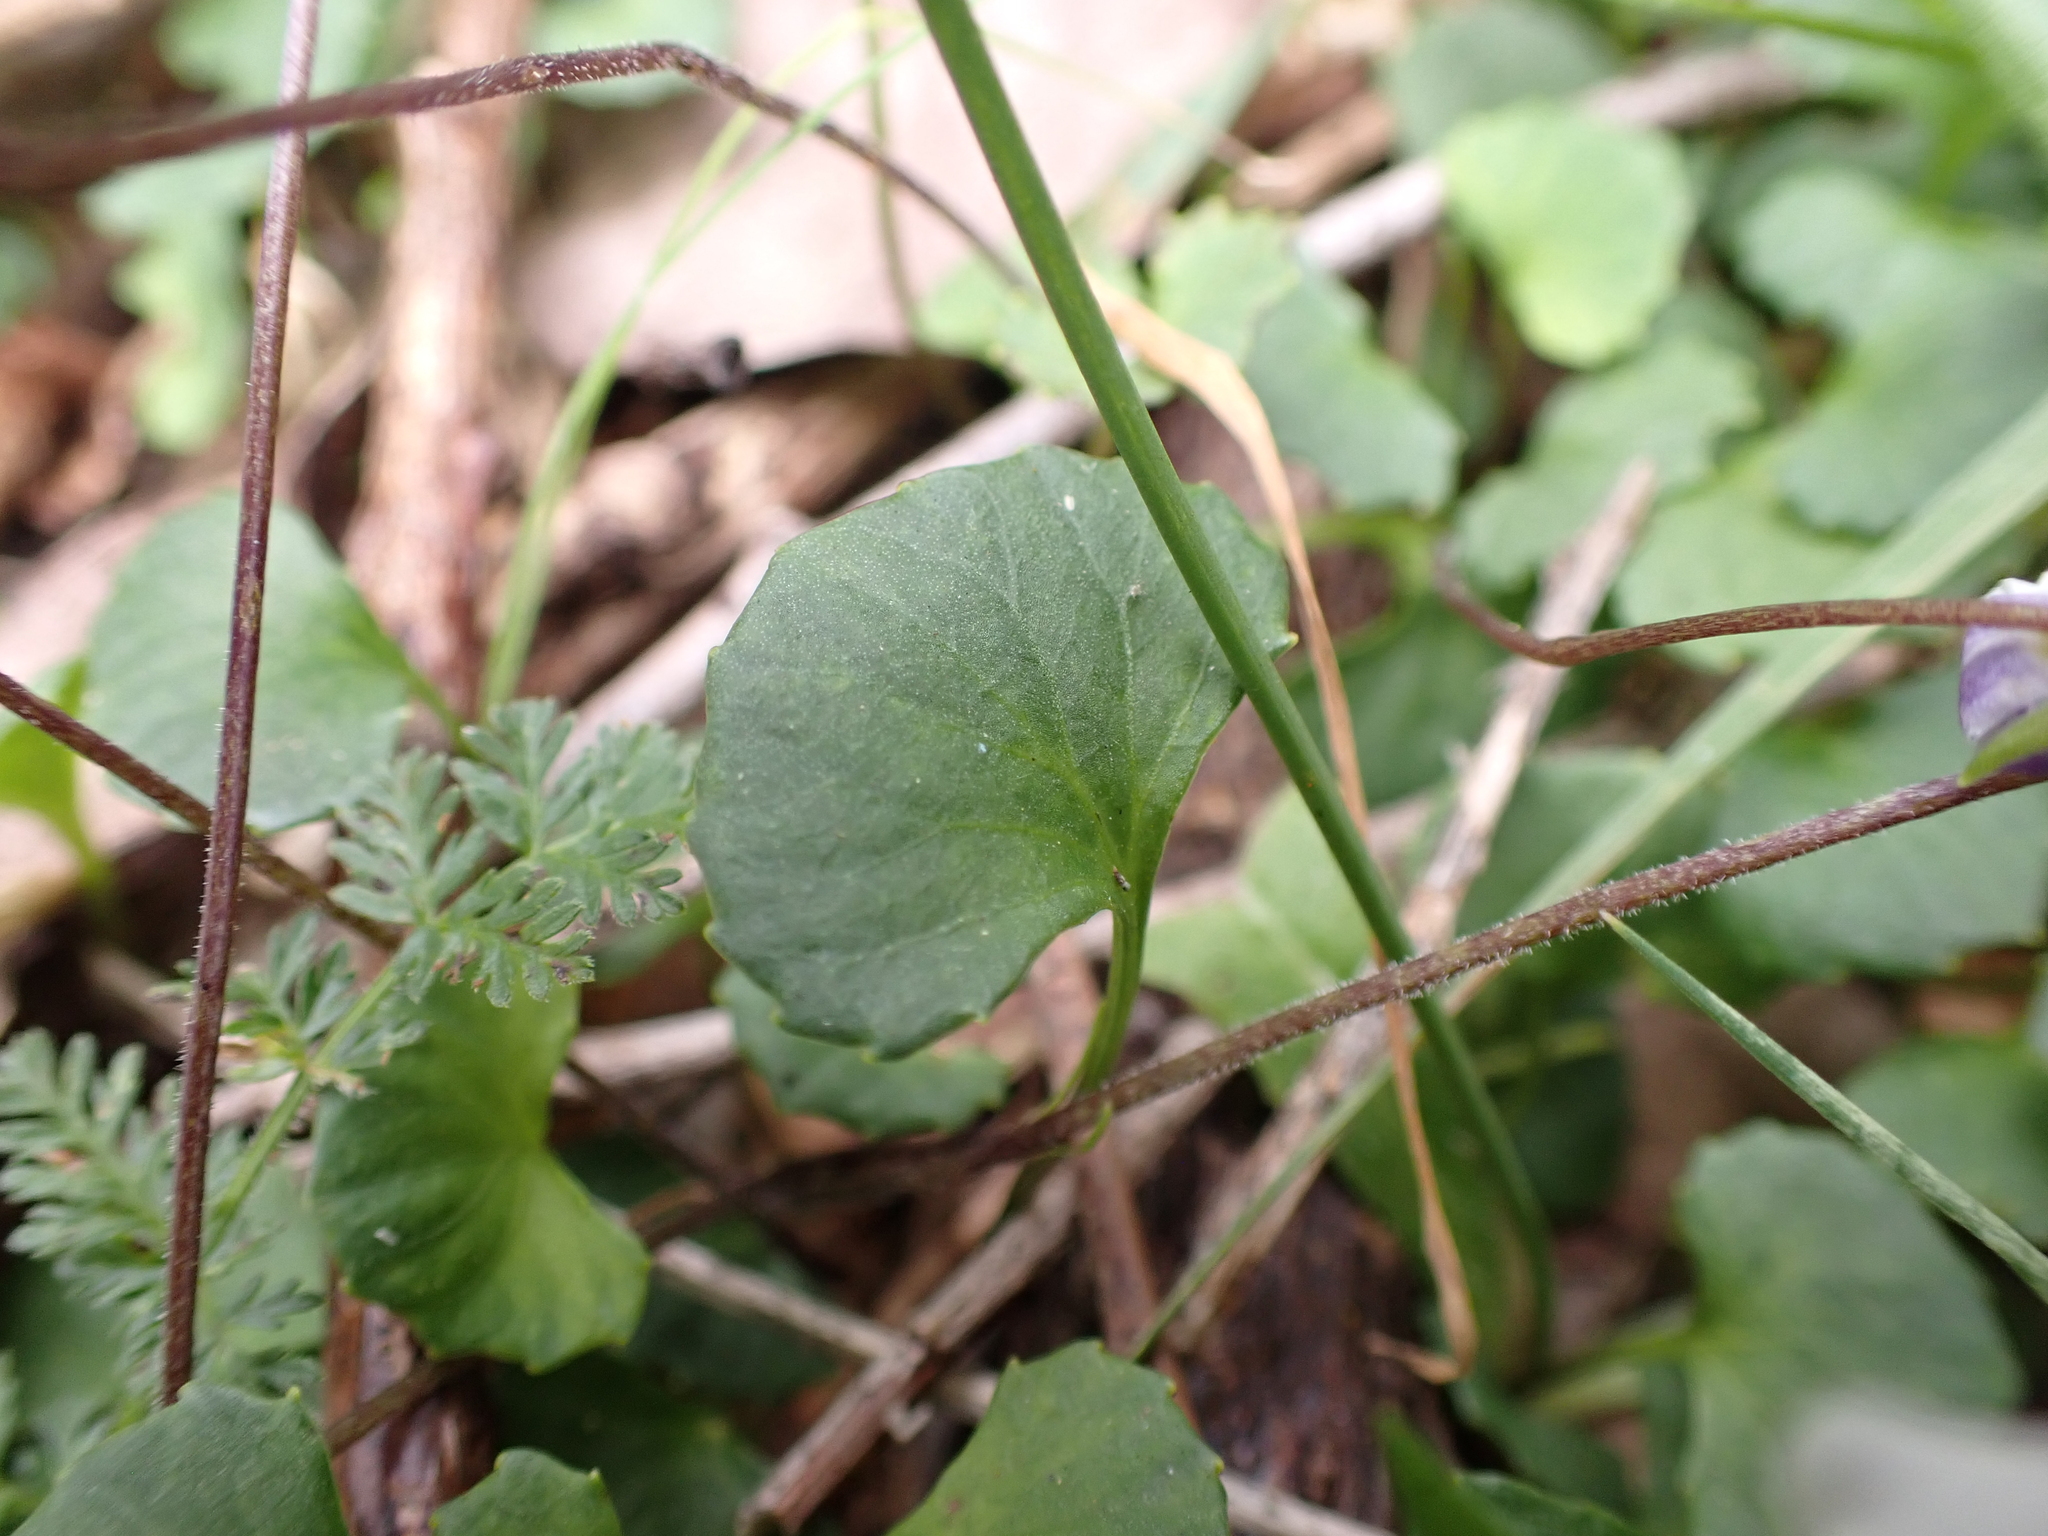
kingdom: Plantae
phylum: Tracheophyta
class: Magnoliopsida
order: Malpighiales
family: Violaceae
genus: Viola
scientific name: Viola hederacea
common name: Australian violet
